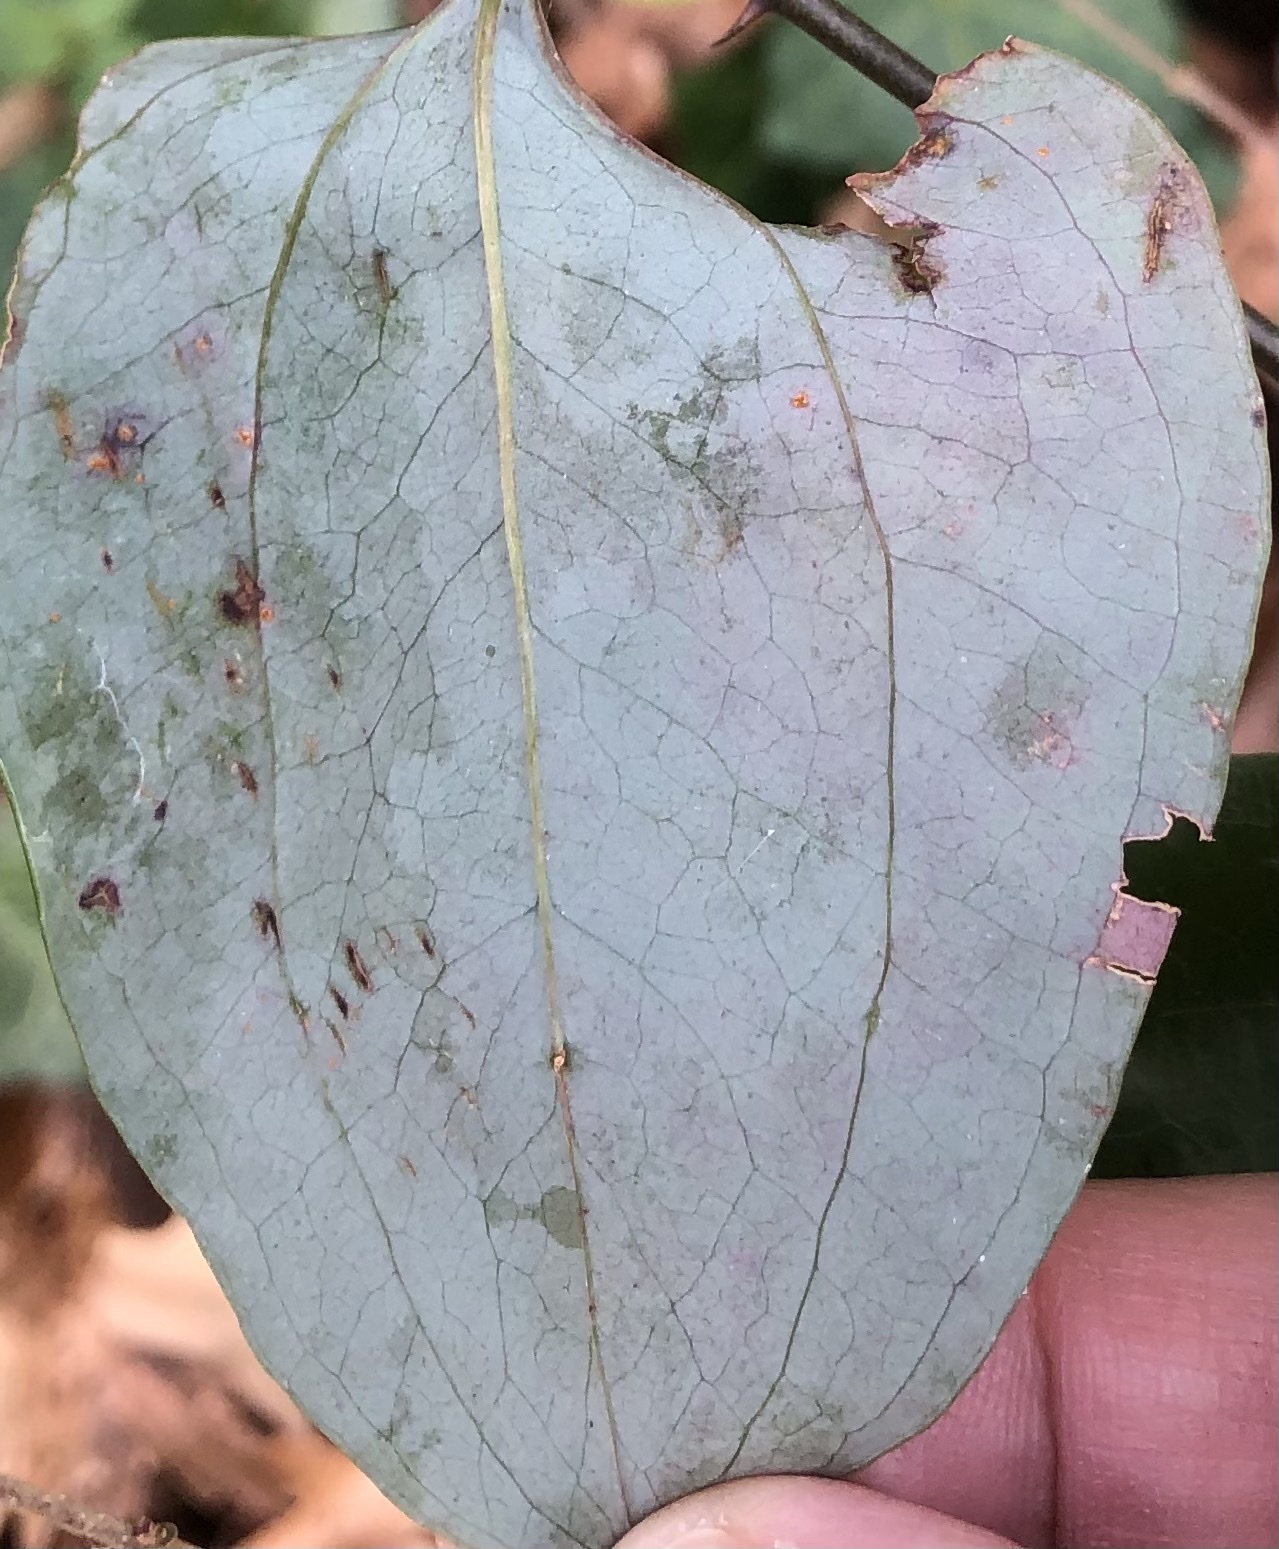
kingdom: Animalia
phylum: Arthropoda
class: Insecta
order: Lepidoptera
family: Gracillariidae
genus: Marmara
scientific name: Marmara smilacisella
